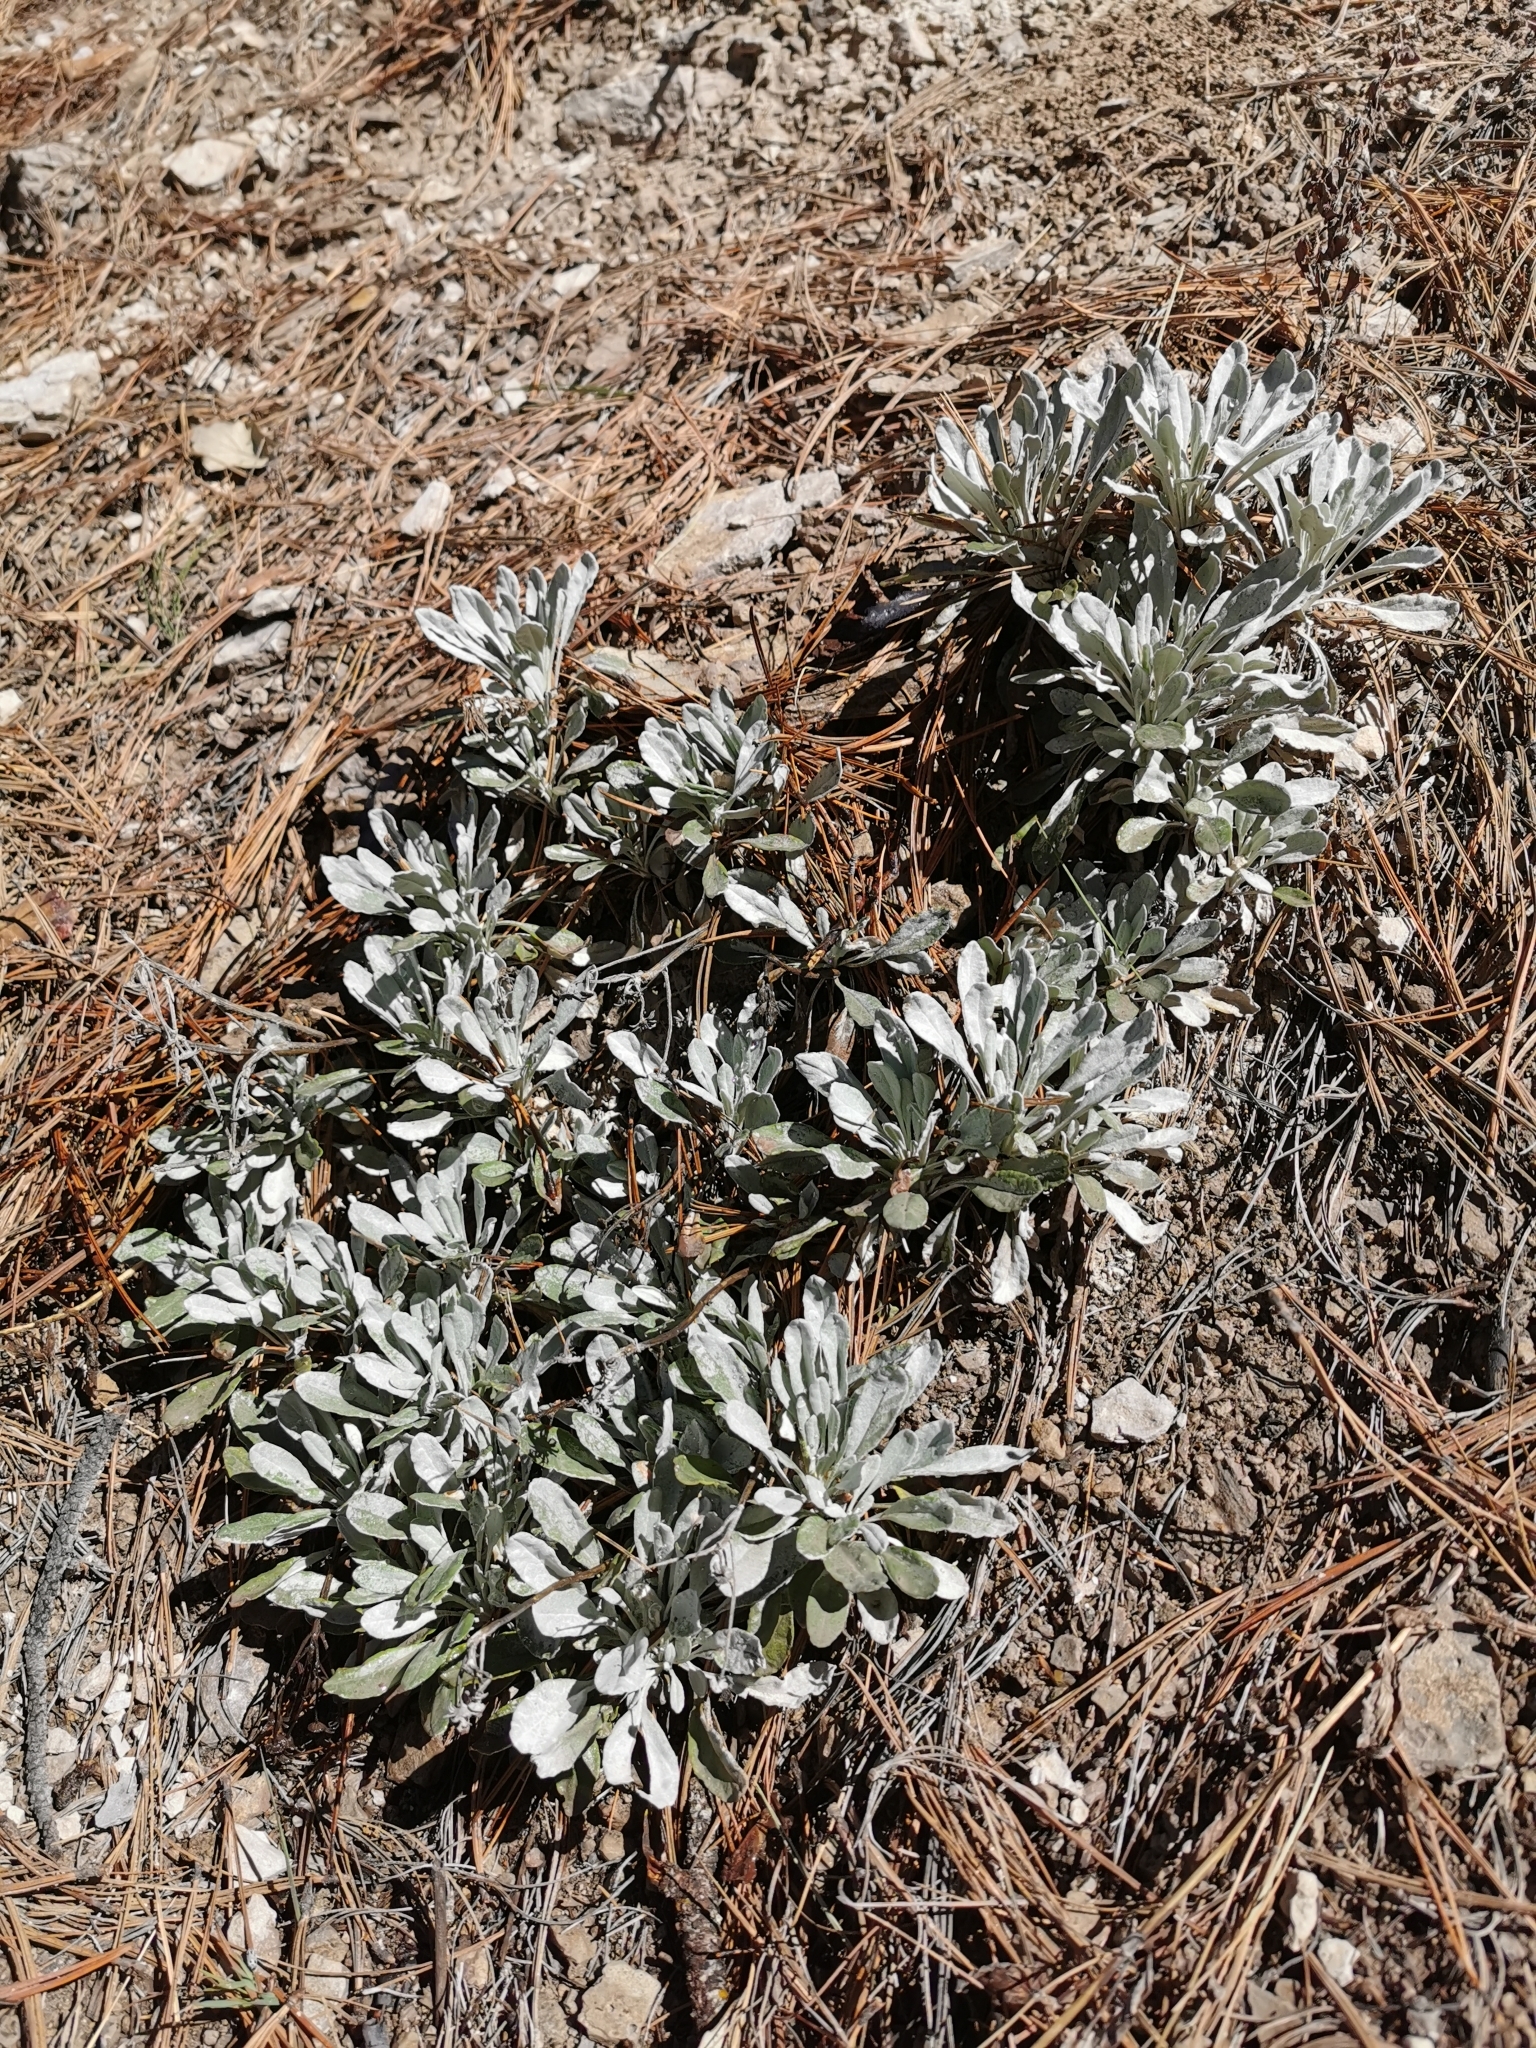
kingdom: Plantae
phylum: Tracheophyta
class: Magnoliopsida
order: Asterales
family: Asteraceae
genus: Packera
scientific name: Packera candidissima
